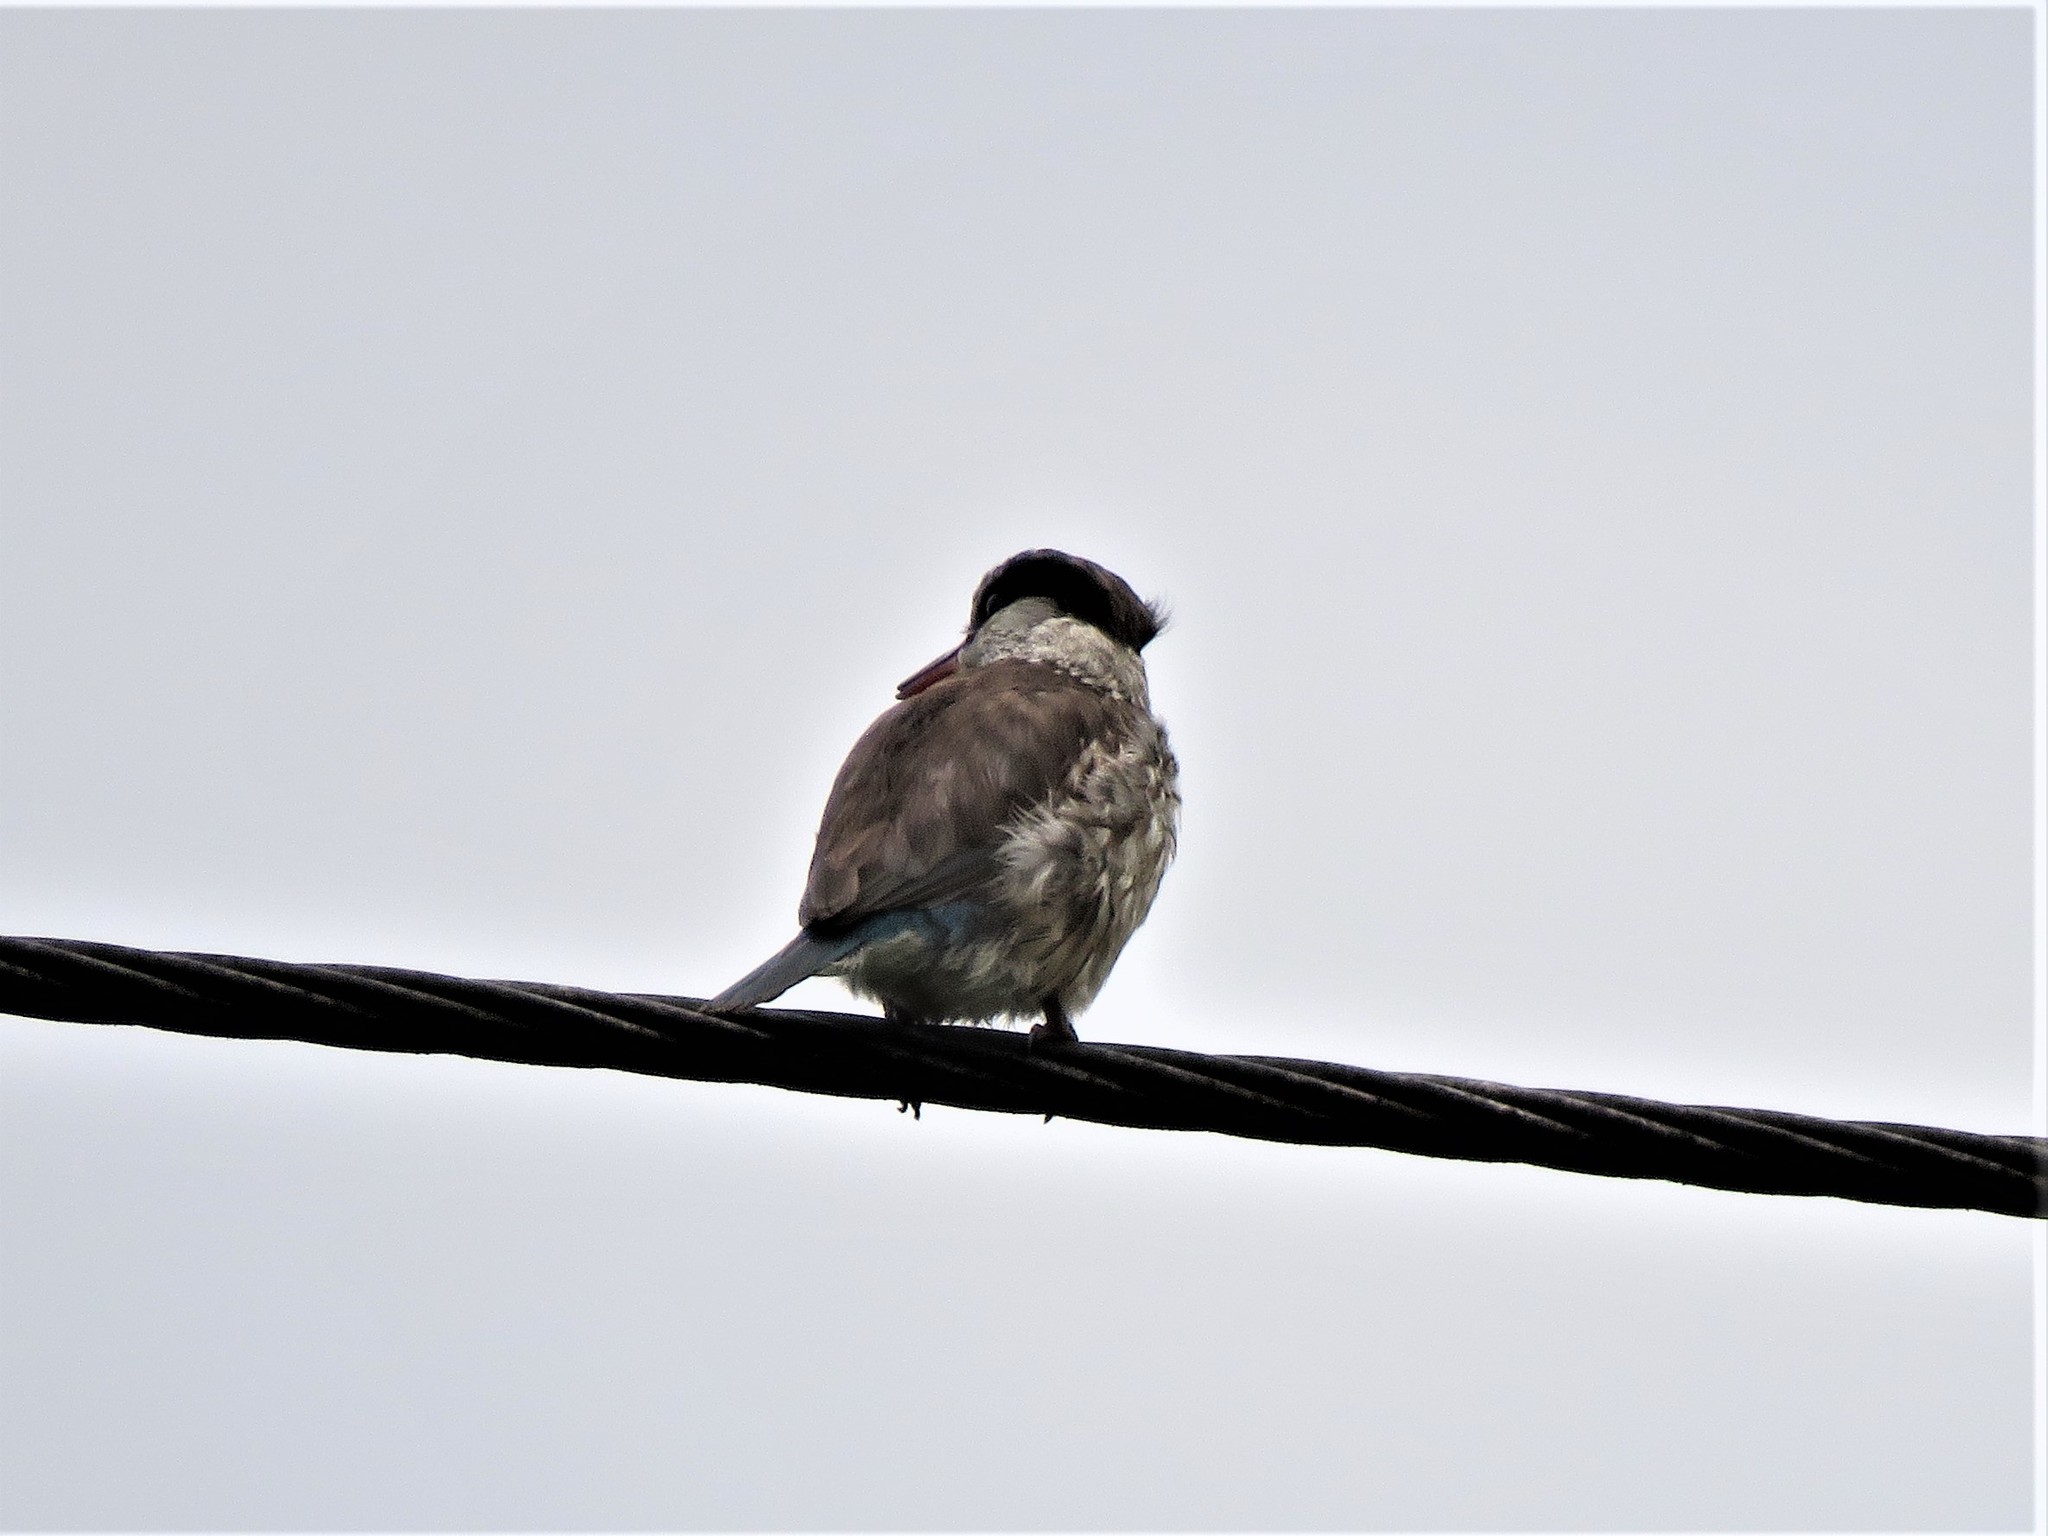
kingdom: Animalia
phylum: Chordata
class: Aves
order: Coraciiformes
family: Alcedinidae
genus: Halcyon
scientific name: Halcyon chelicuti
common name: Striped kingfisher
